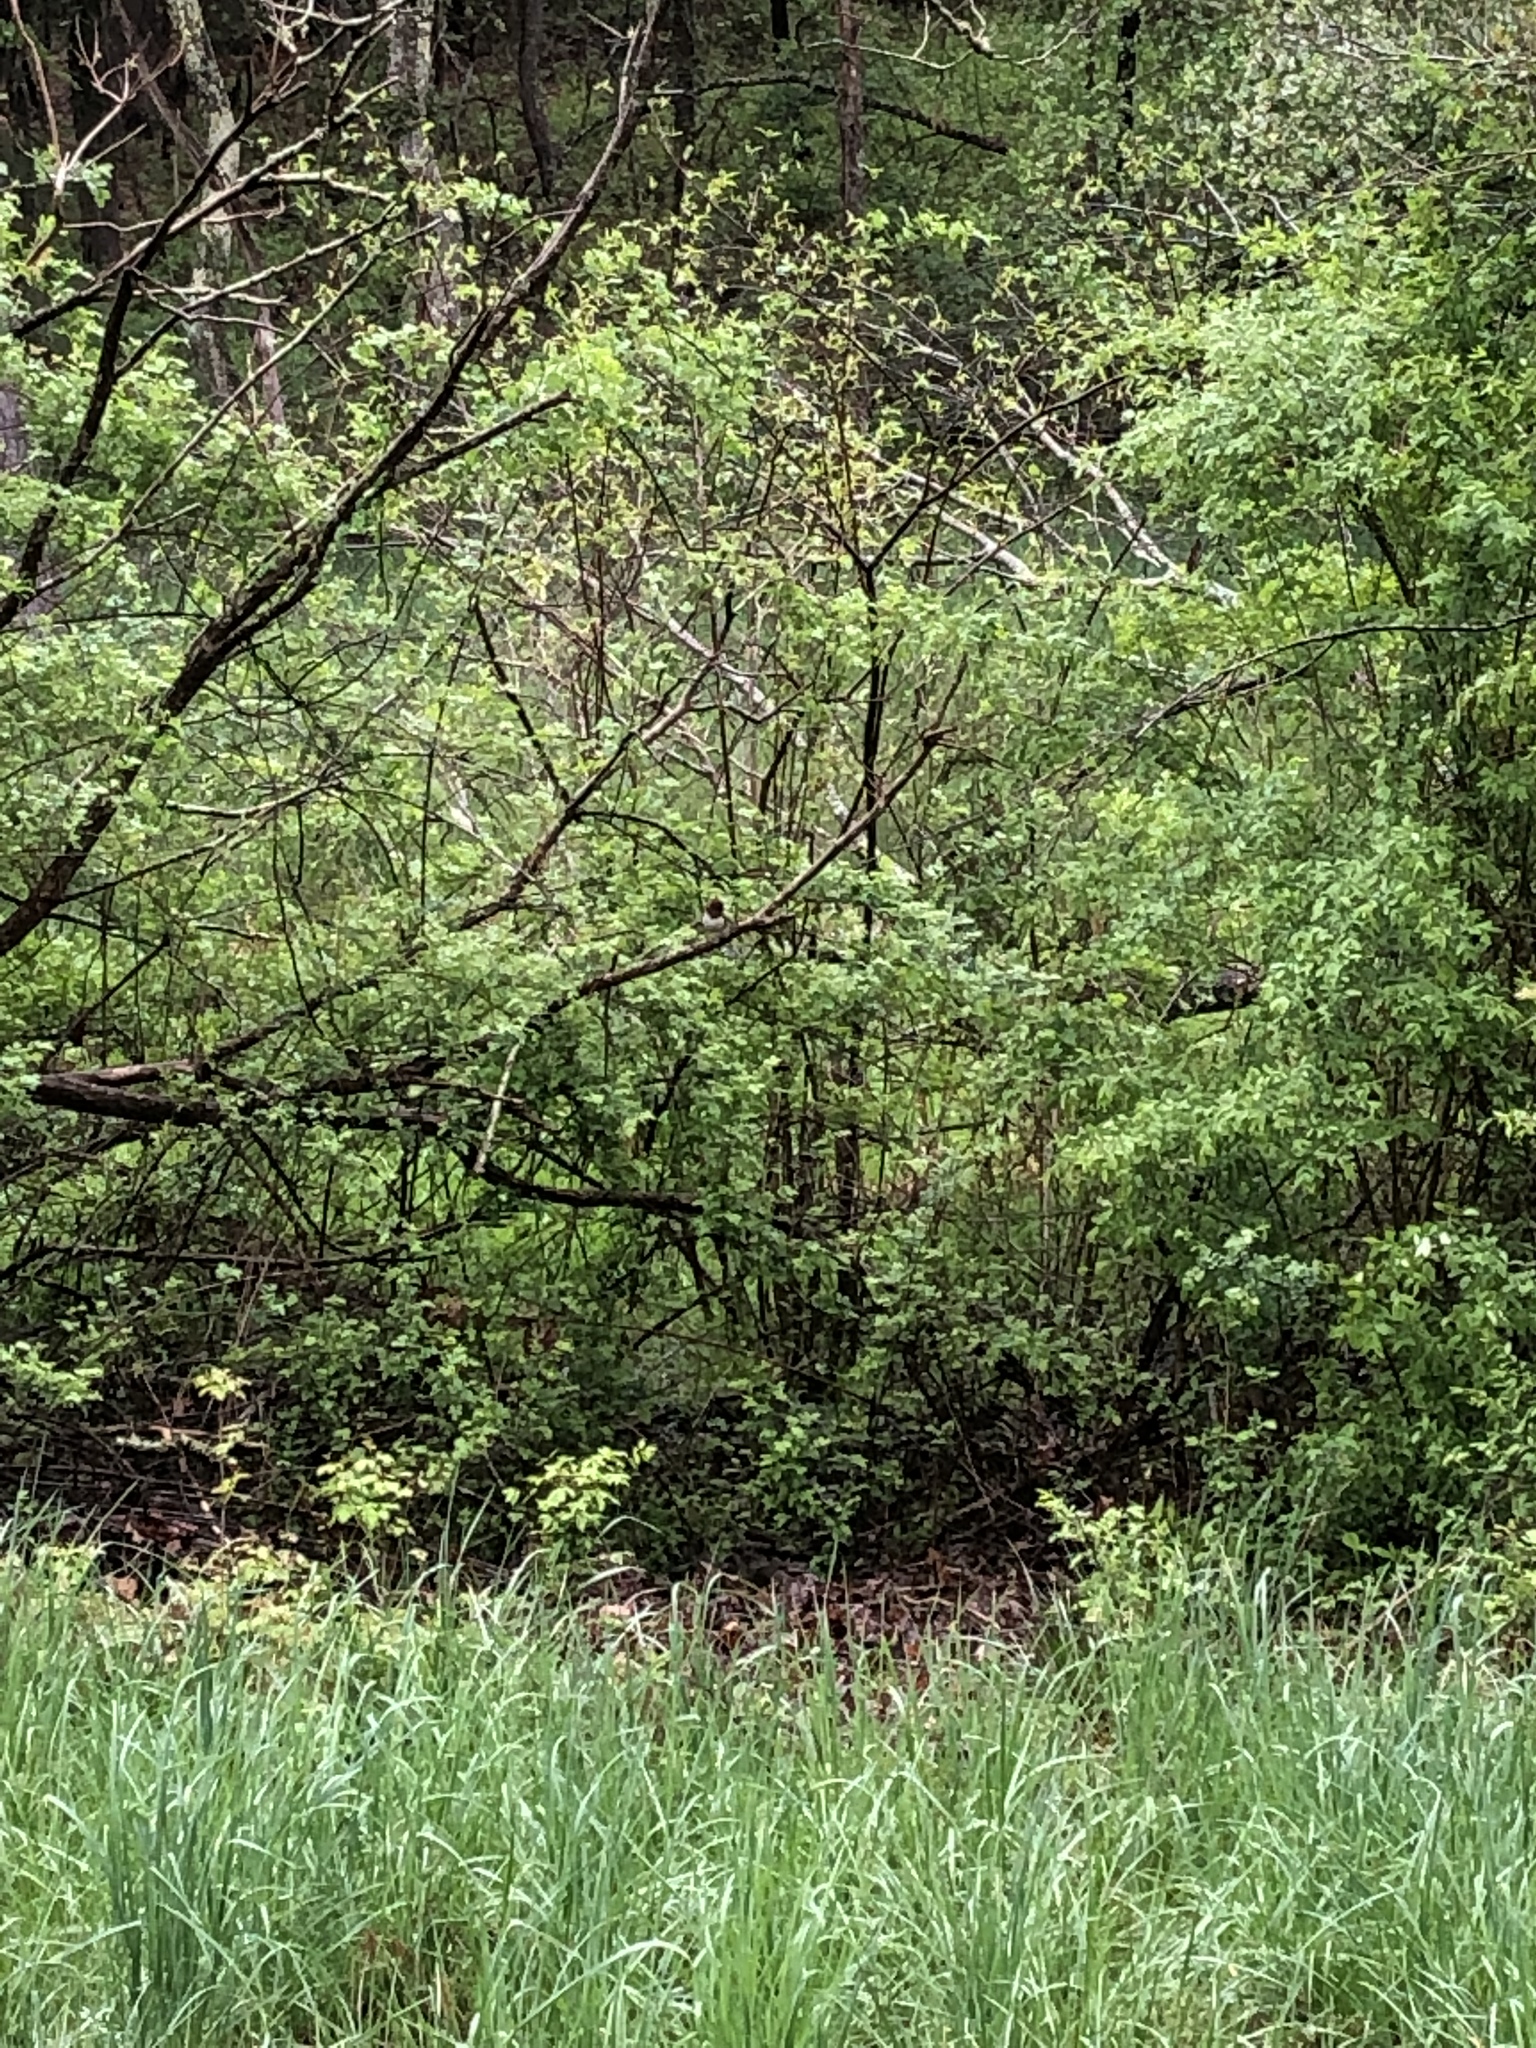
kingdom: Animalia
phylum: Chordata
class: Aves
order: Passeriformes
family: Passerellidae
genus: Pipilo
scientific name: Pipilo erythrophthalmus
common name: Eastern towhee
